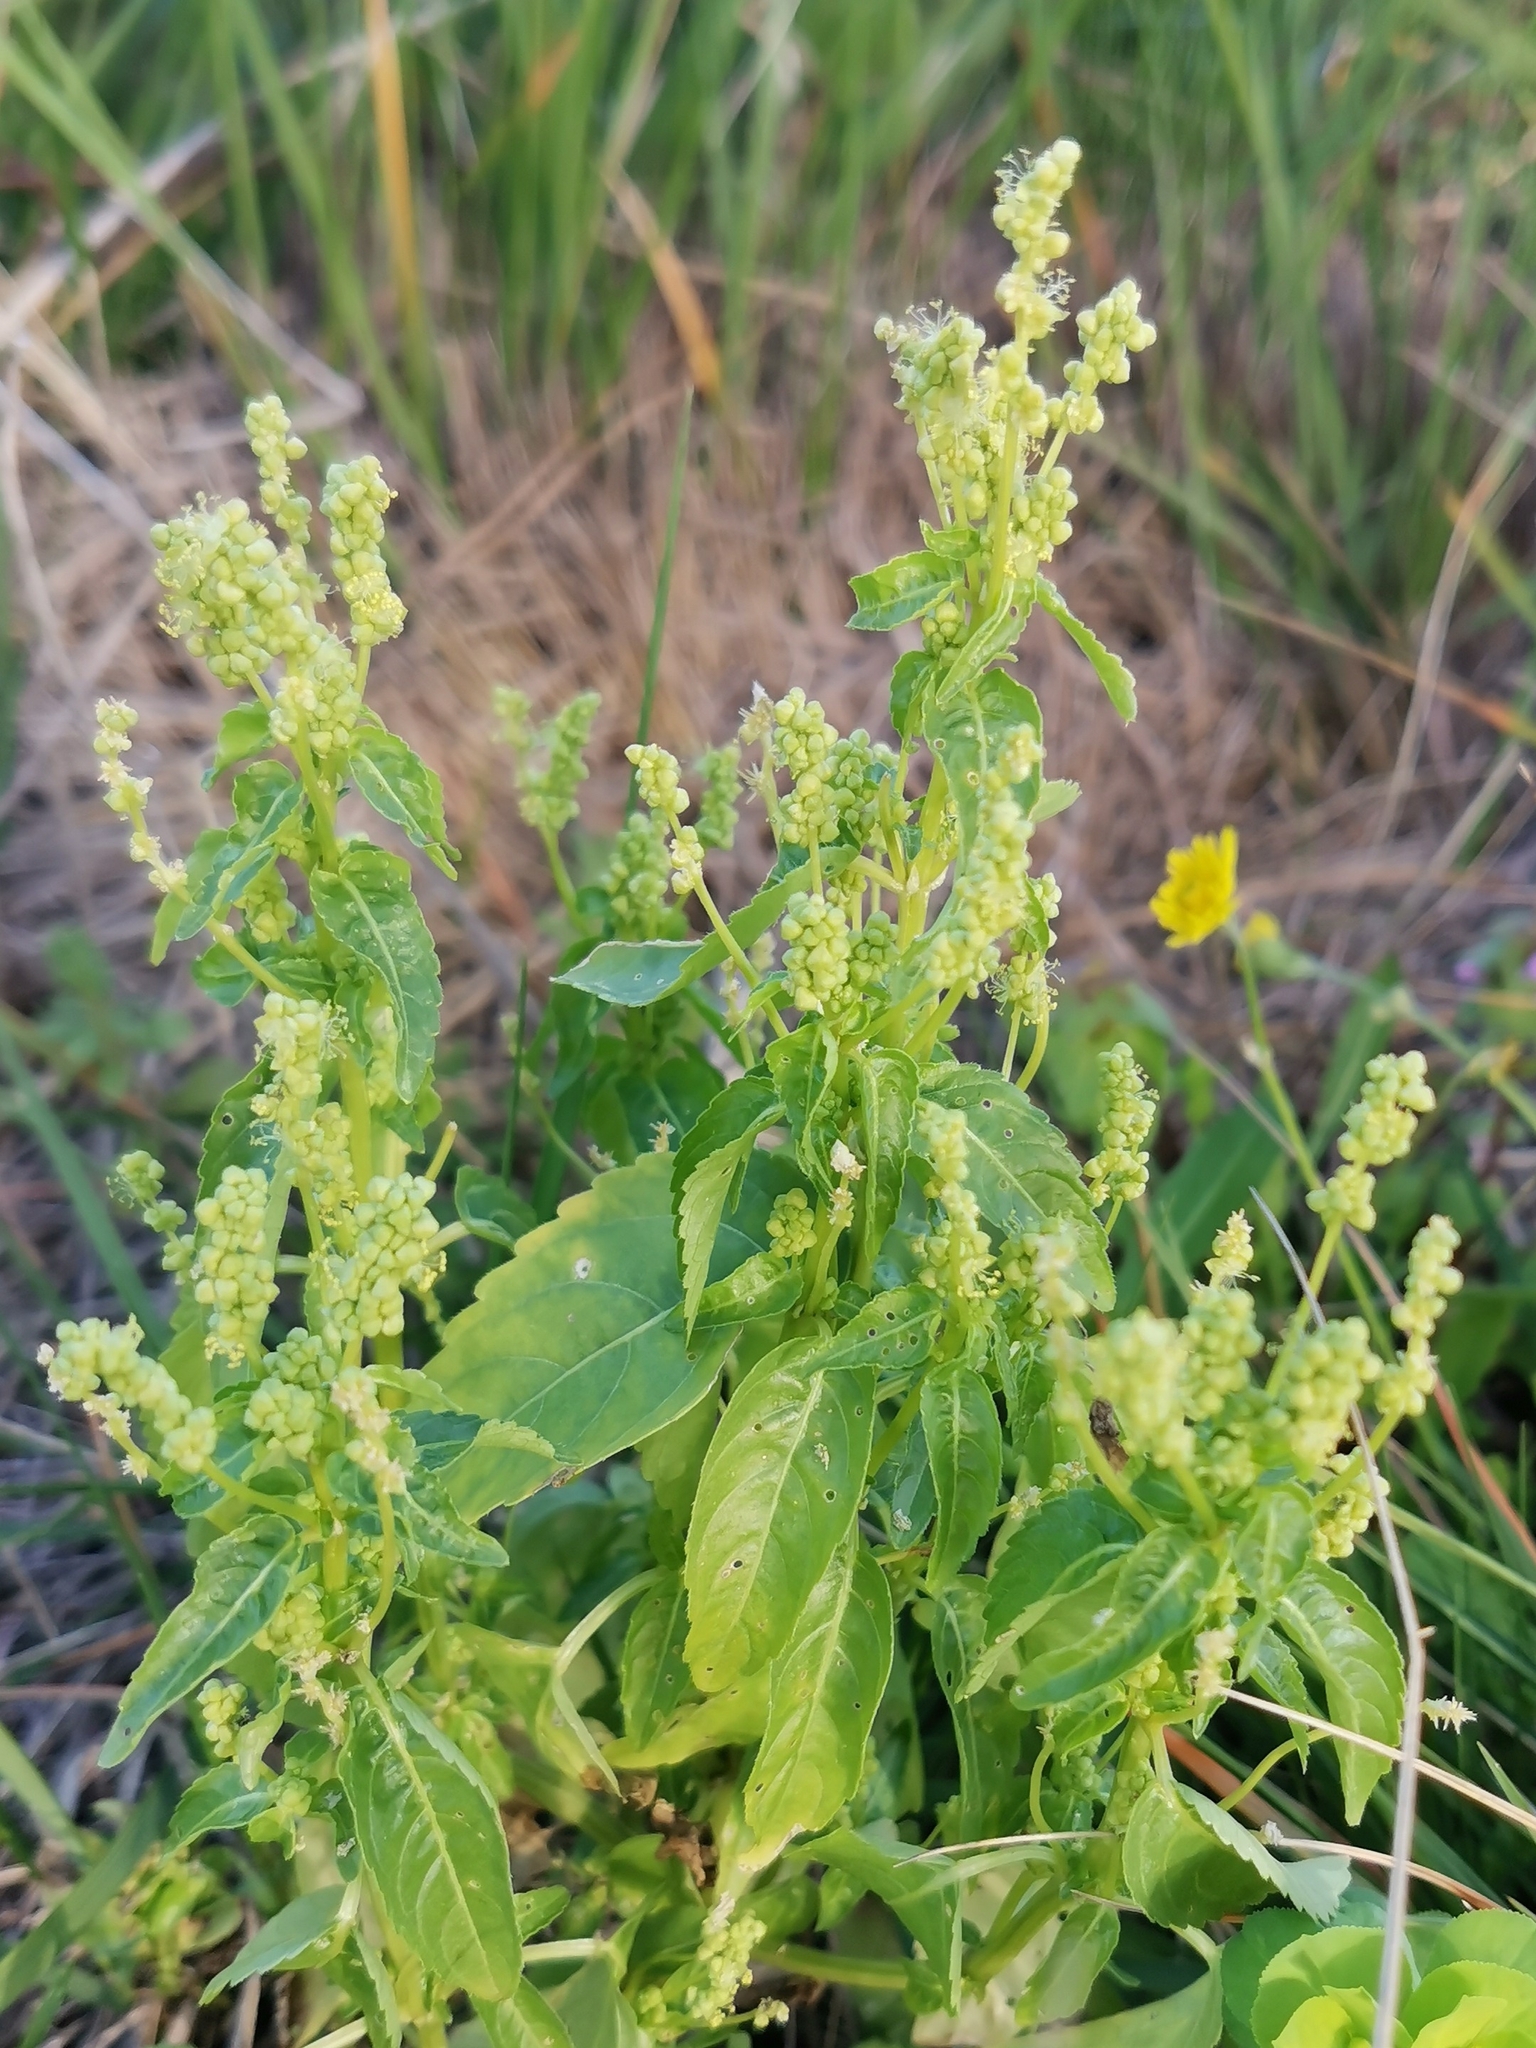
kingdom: Plantae
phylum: Tracheophyta
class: Magnoliopsida
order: Malpighiales
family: Euphorbiaceae
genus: Mercurialis
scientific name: Mercurialis annua
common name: Annual mercury
